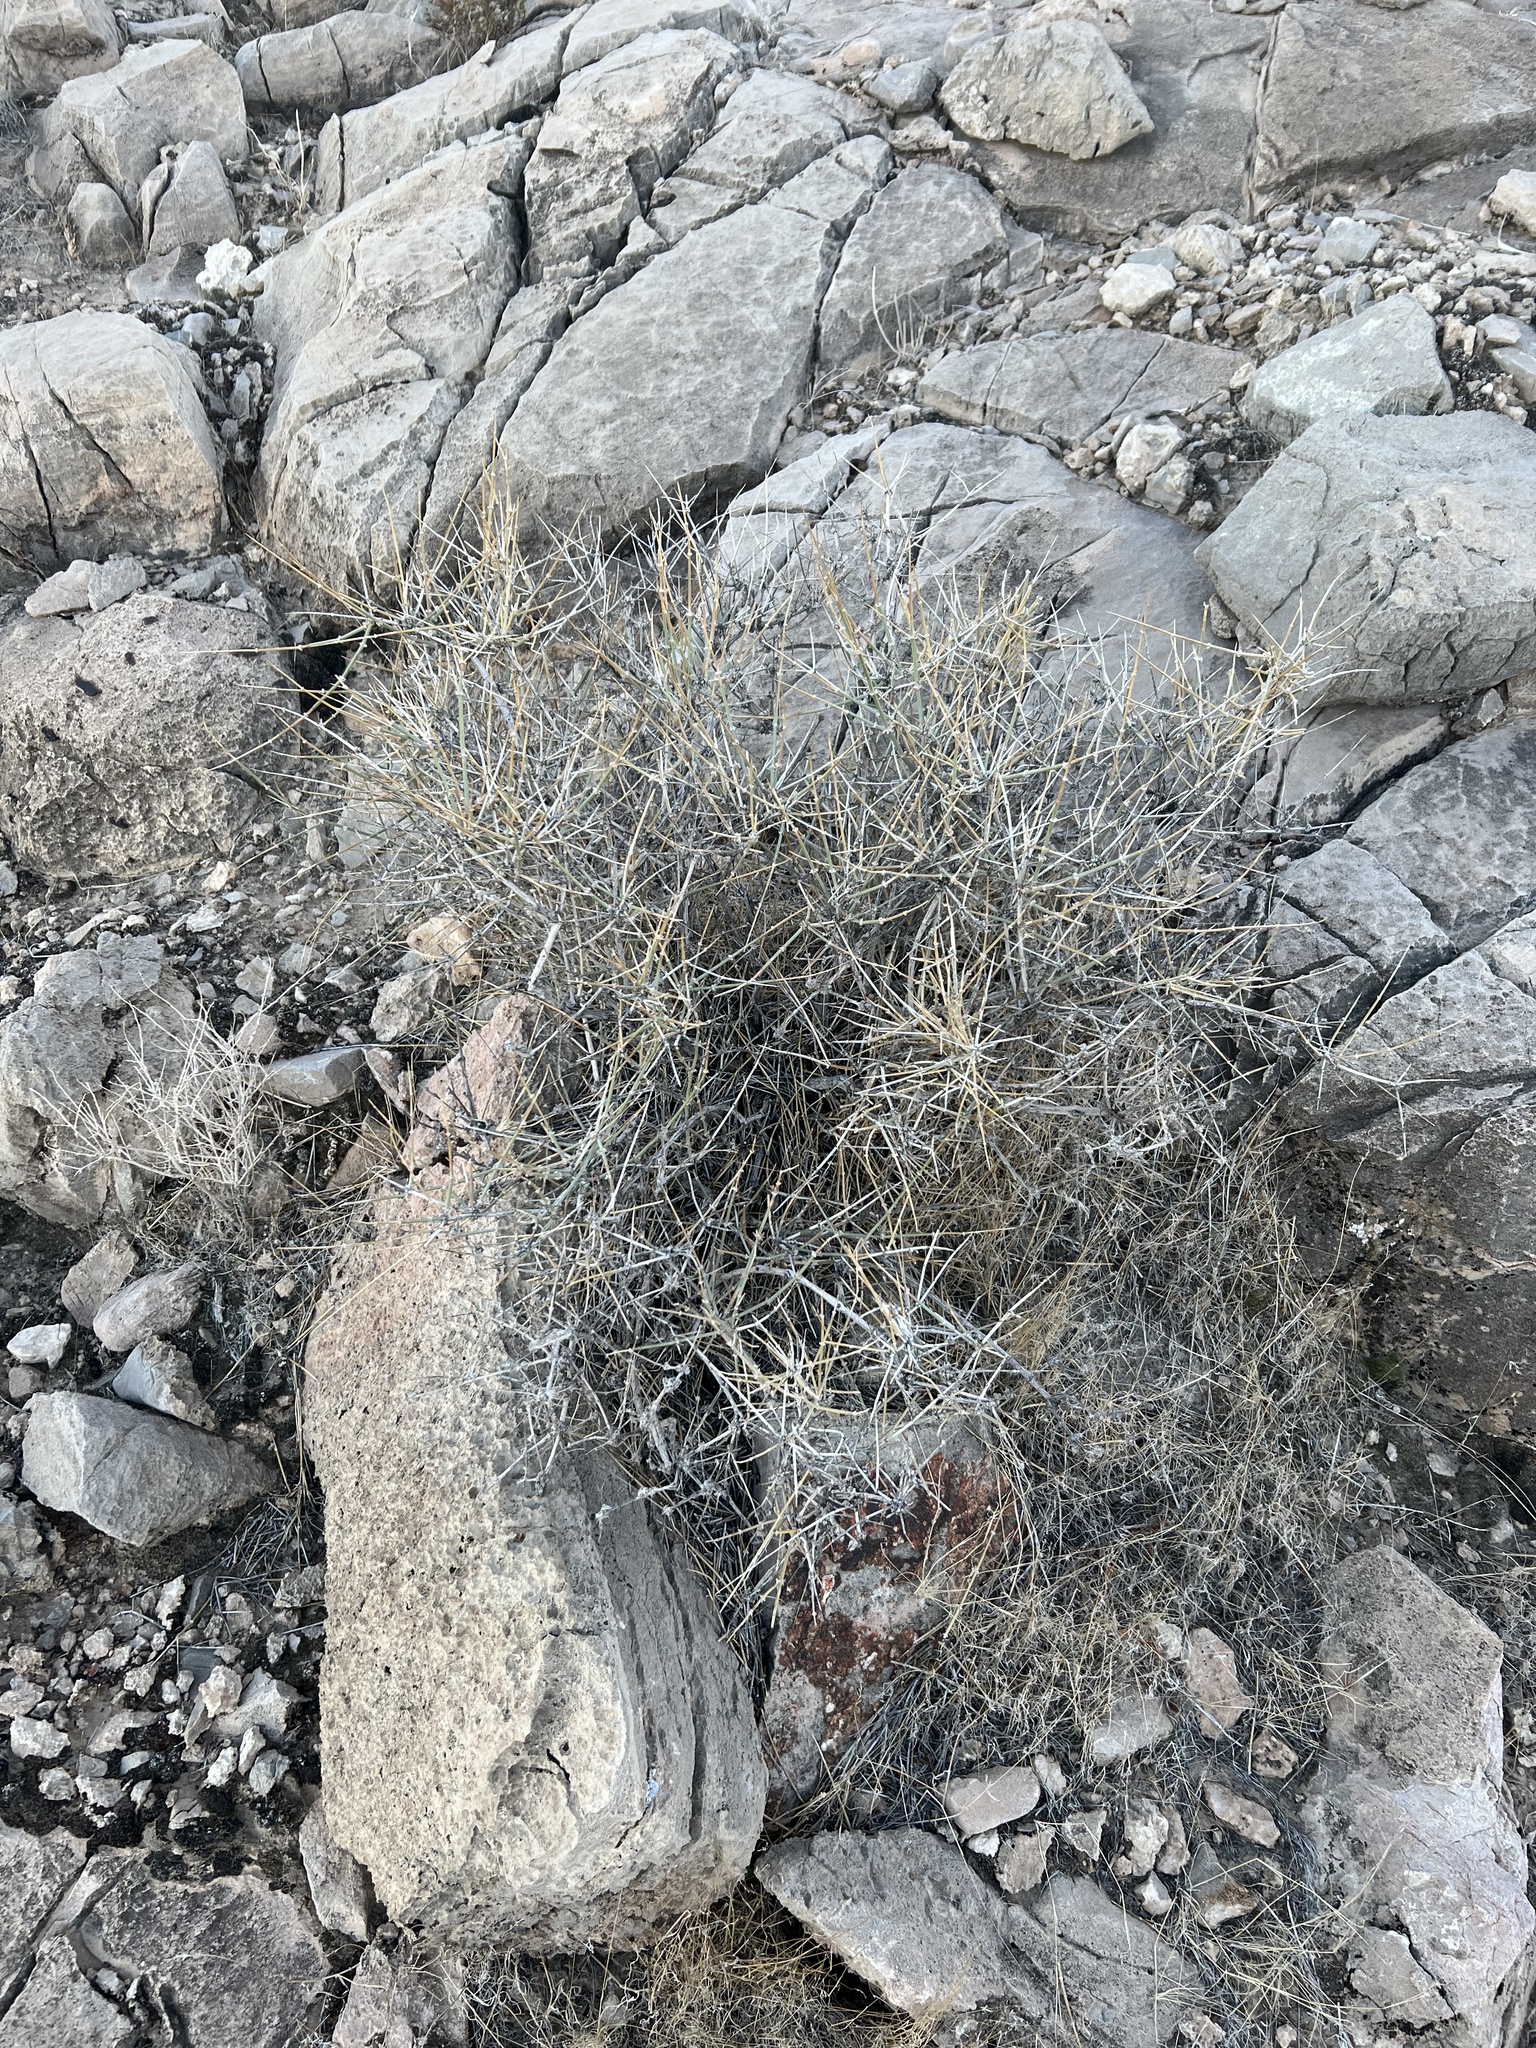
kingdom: Plantae
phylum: Tracheophyta
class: Gnetopsida
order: Ephedrales
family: Ephedraceae
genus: Ephedra
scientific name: Ephedra nevadensis
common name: Gray ephedra
